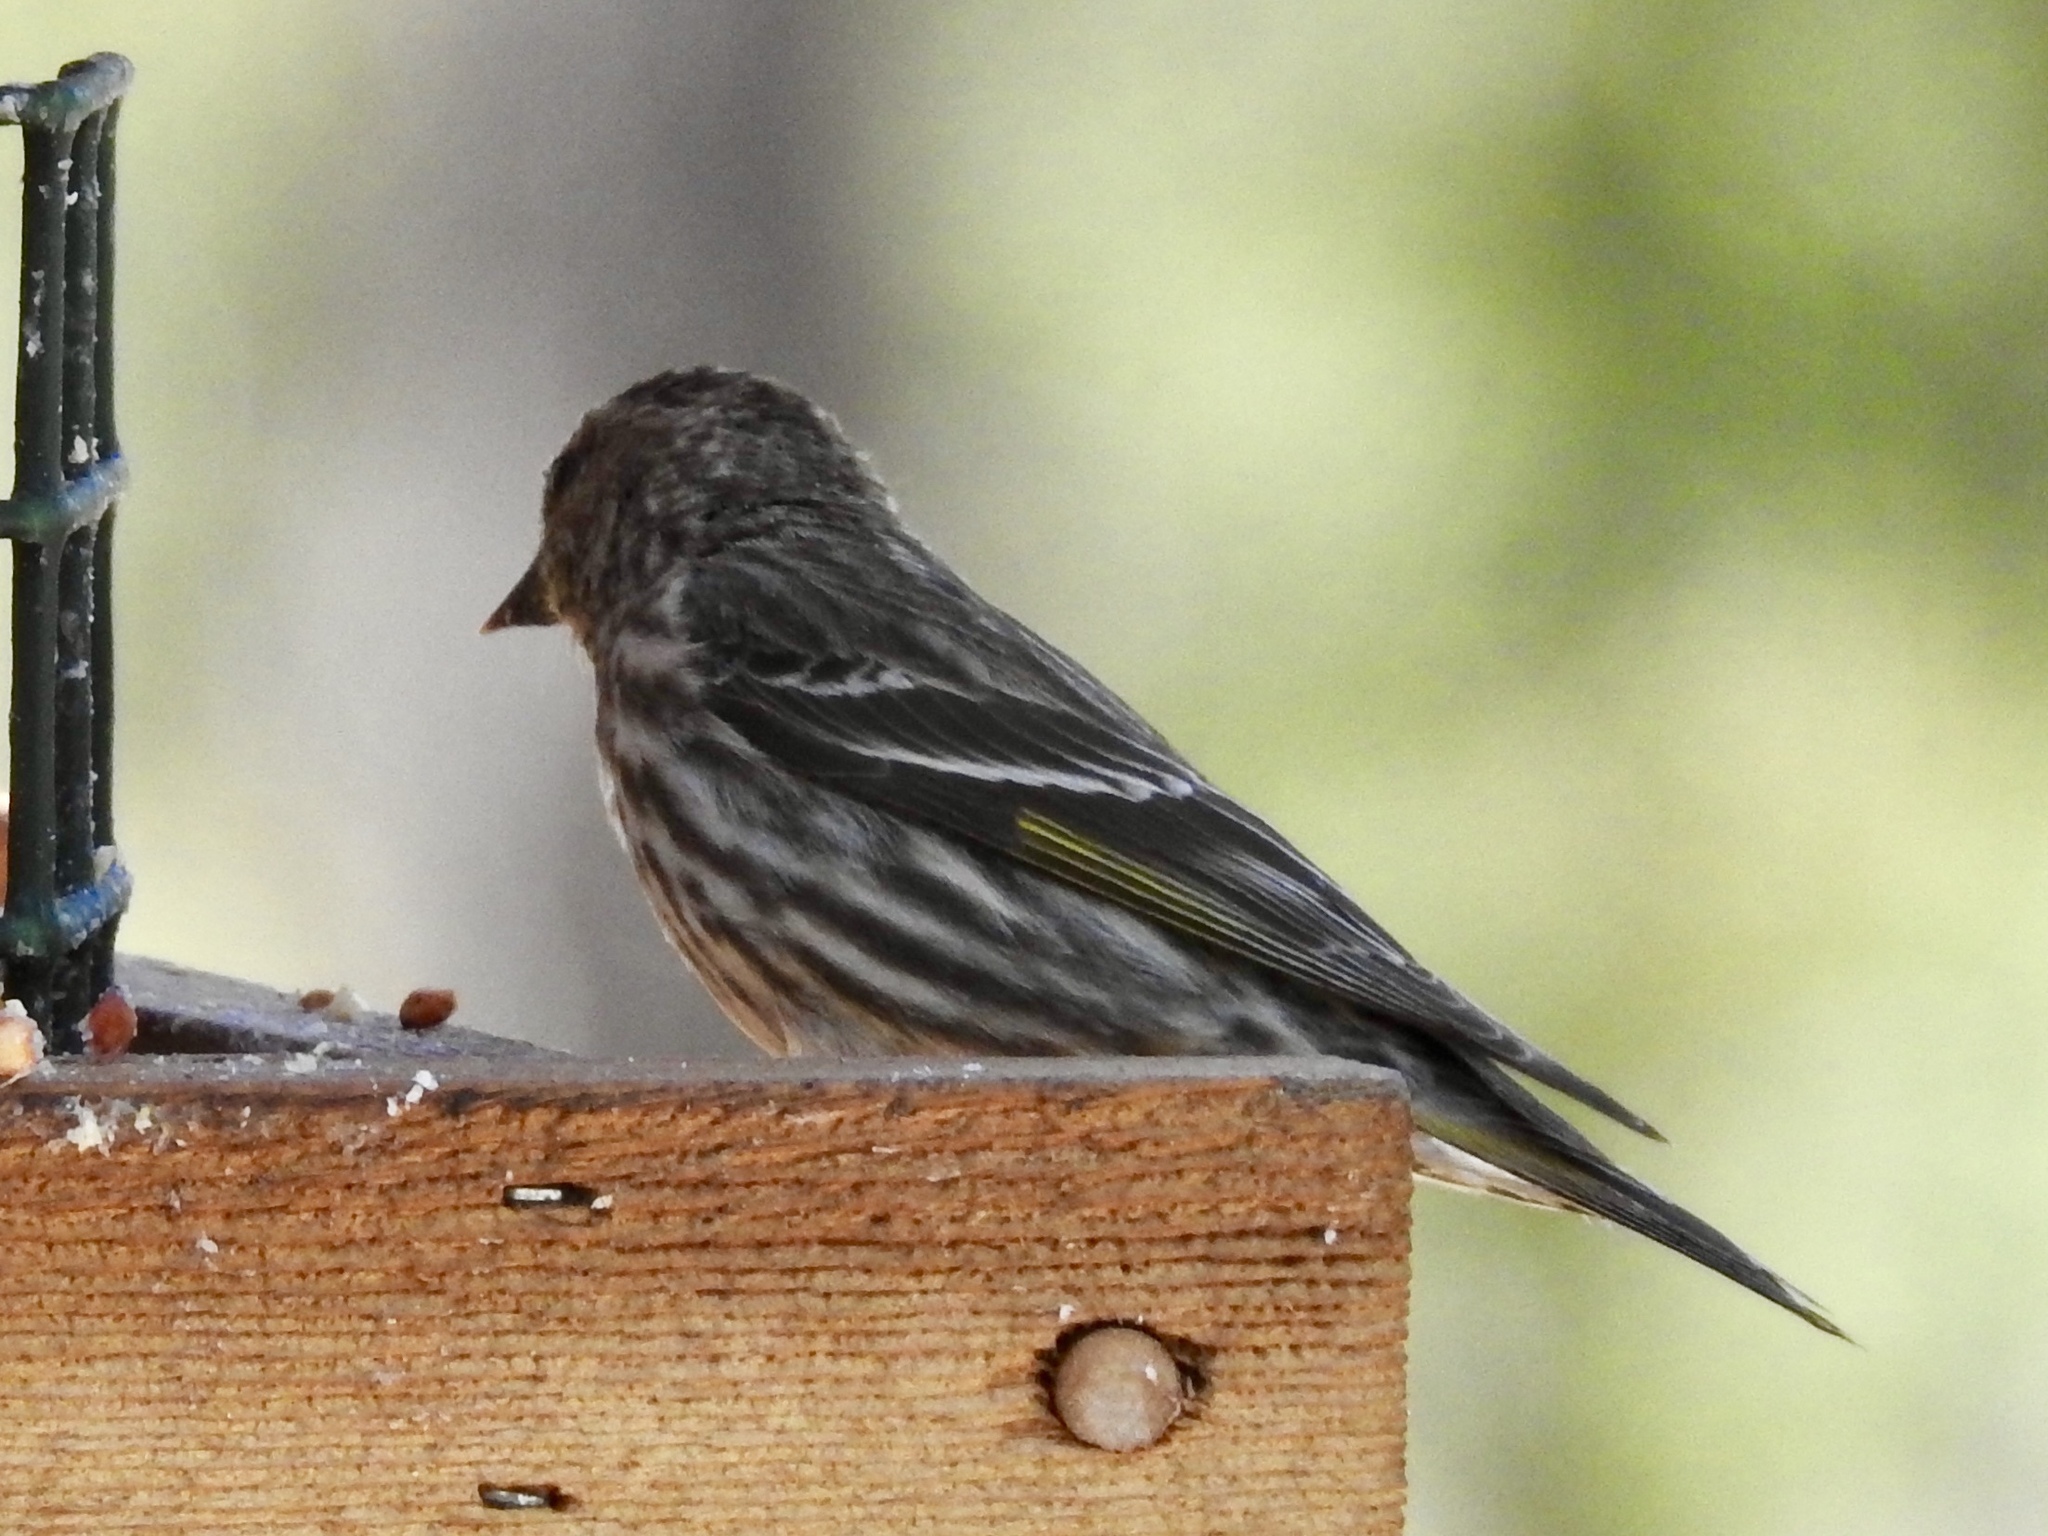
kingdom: Animalia
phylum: Chordata
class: Aves
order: Passeriformes
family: Fringillidae
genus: Spinus
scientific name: Spinus pinus
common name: Pine siskin
